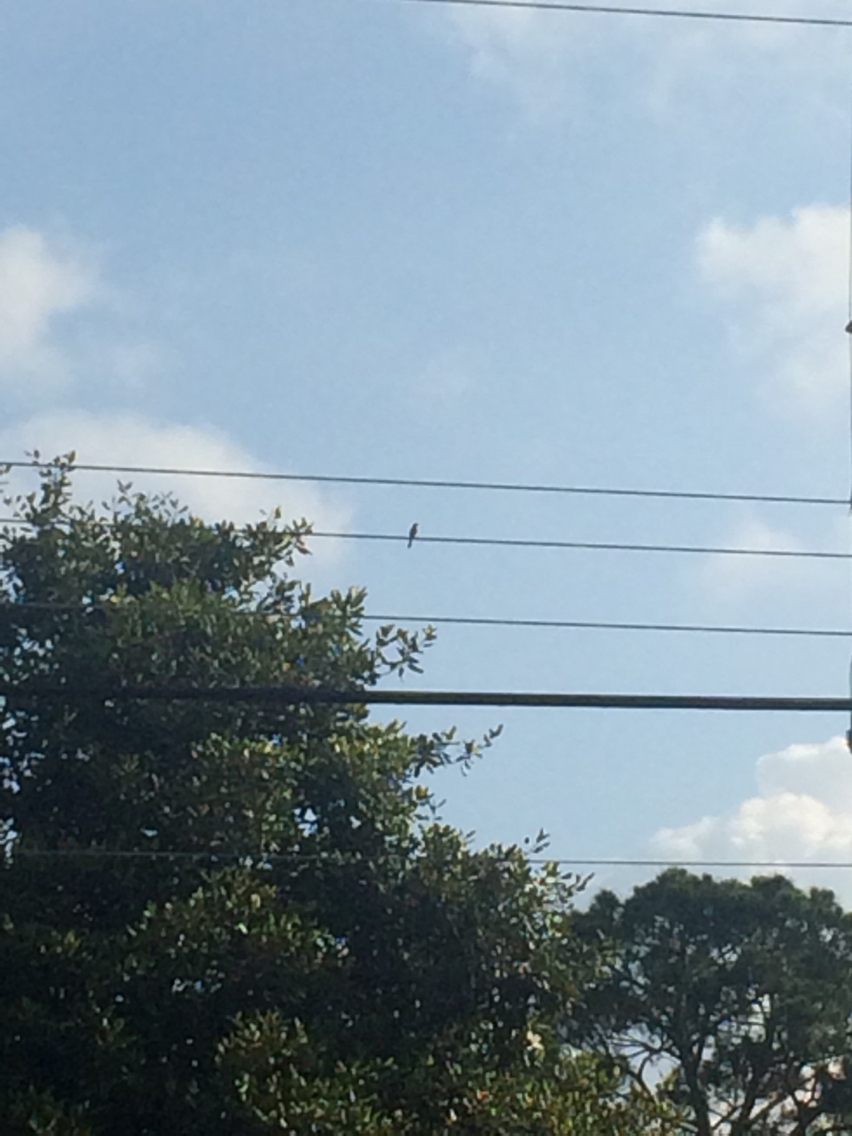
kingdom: Animalia
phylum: Chordata
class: Aves
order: Passeriformes
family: Mimidae
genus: Mimus
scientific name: Mimus polyglottos
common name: Northern mockingbird
